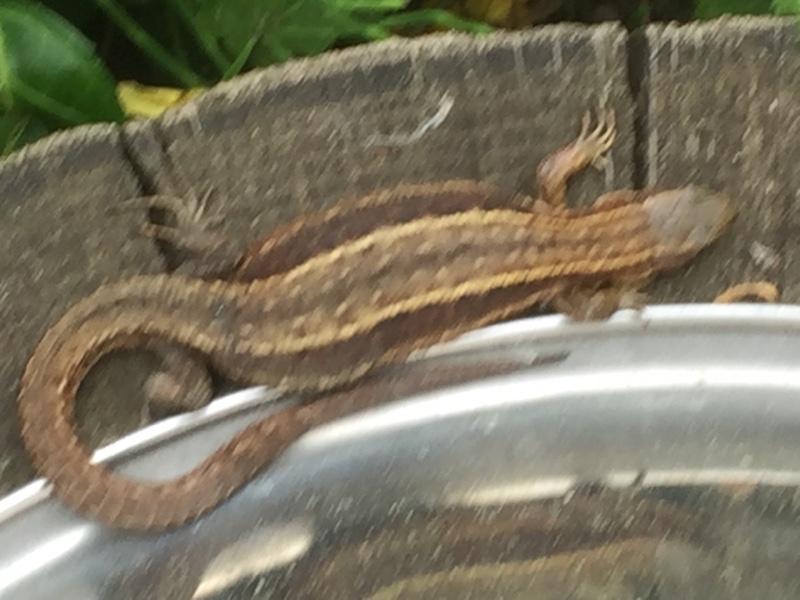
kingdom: Animalia
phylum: Chordata
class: Squamata
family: Lacertidae
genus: Zootoca
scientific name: Zootoca vivipara
